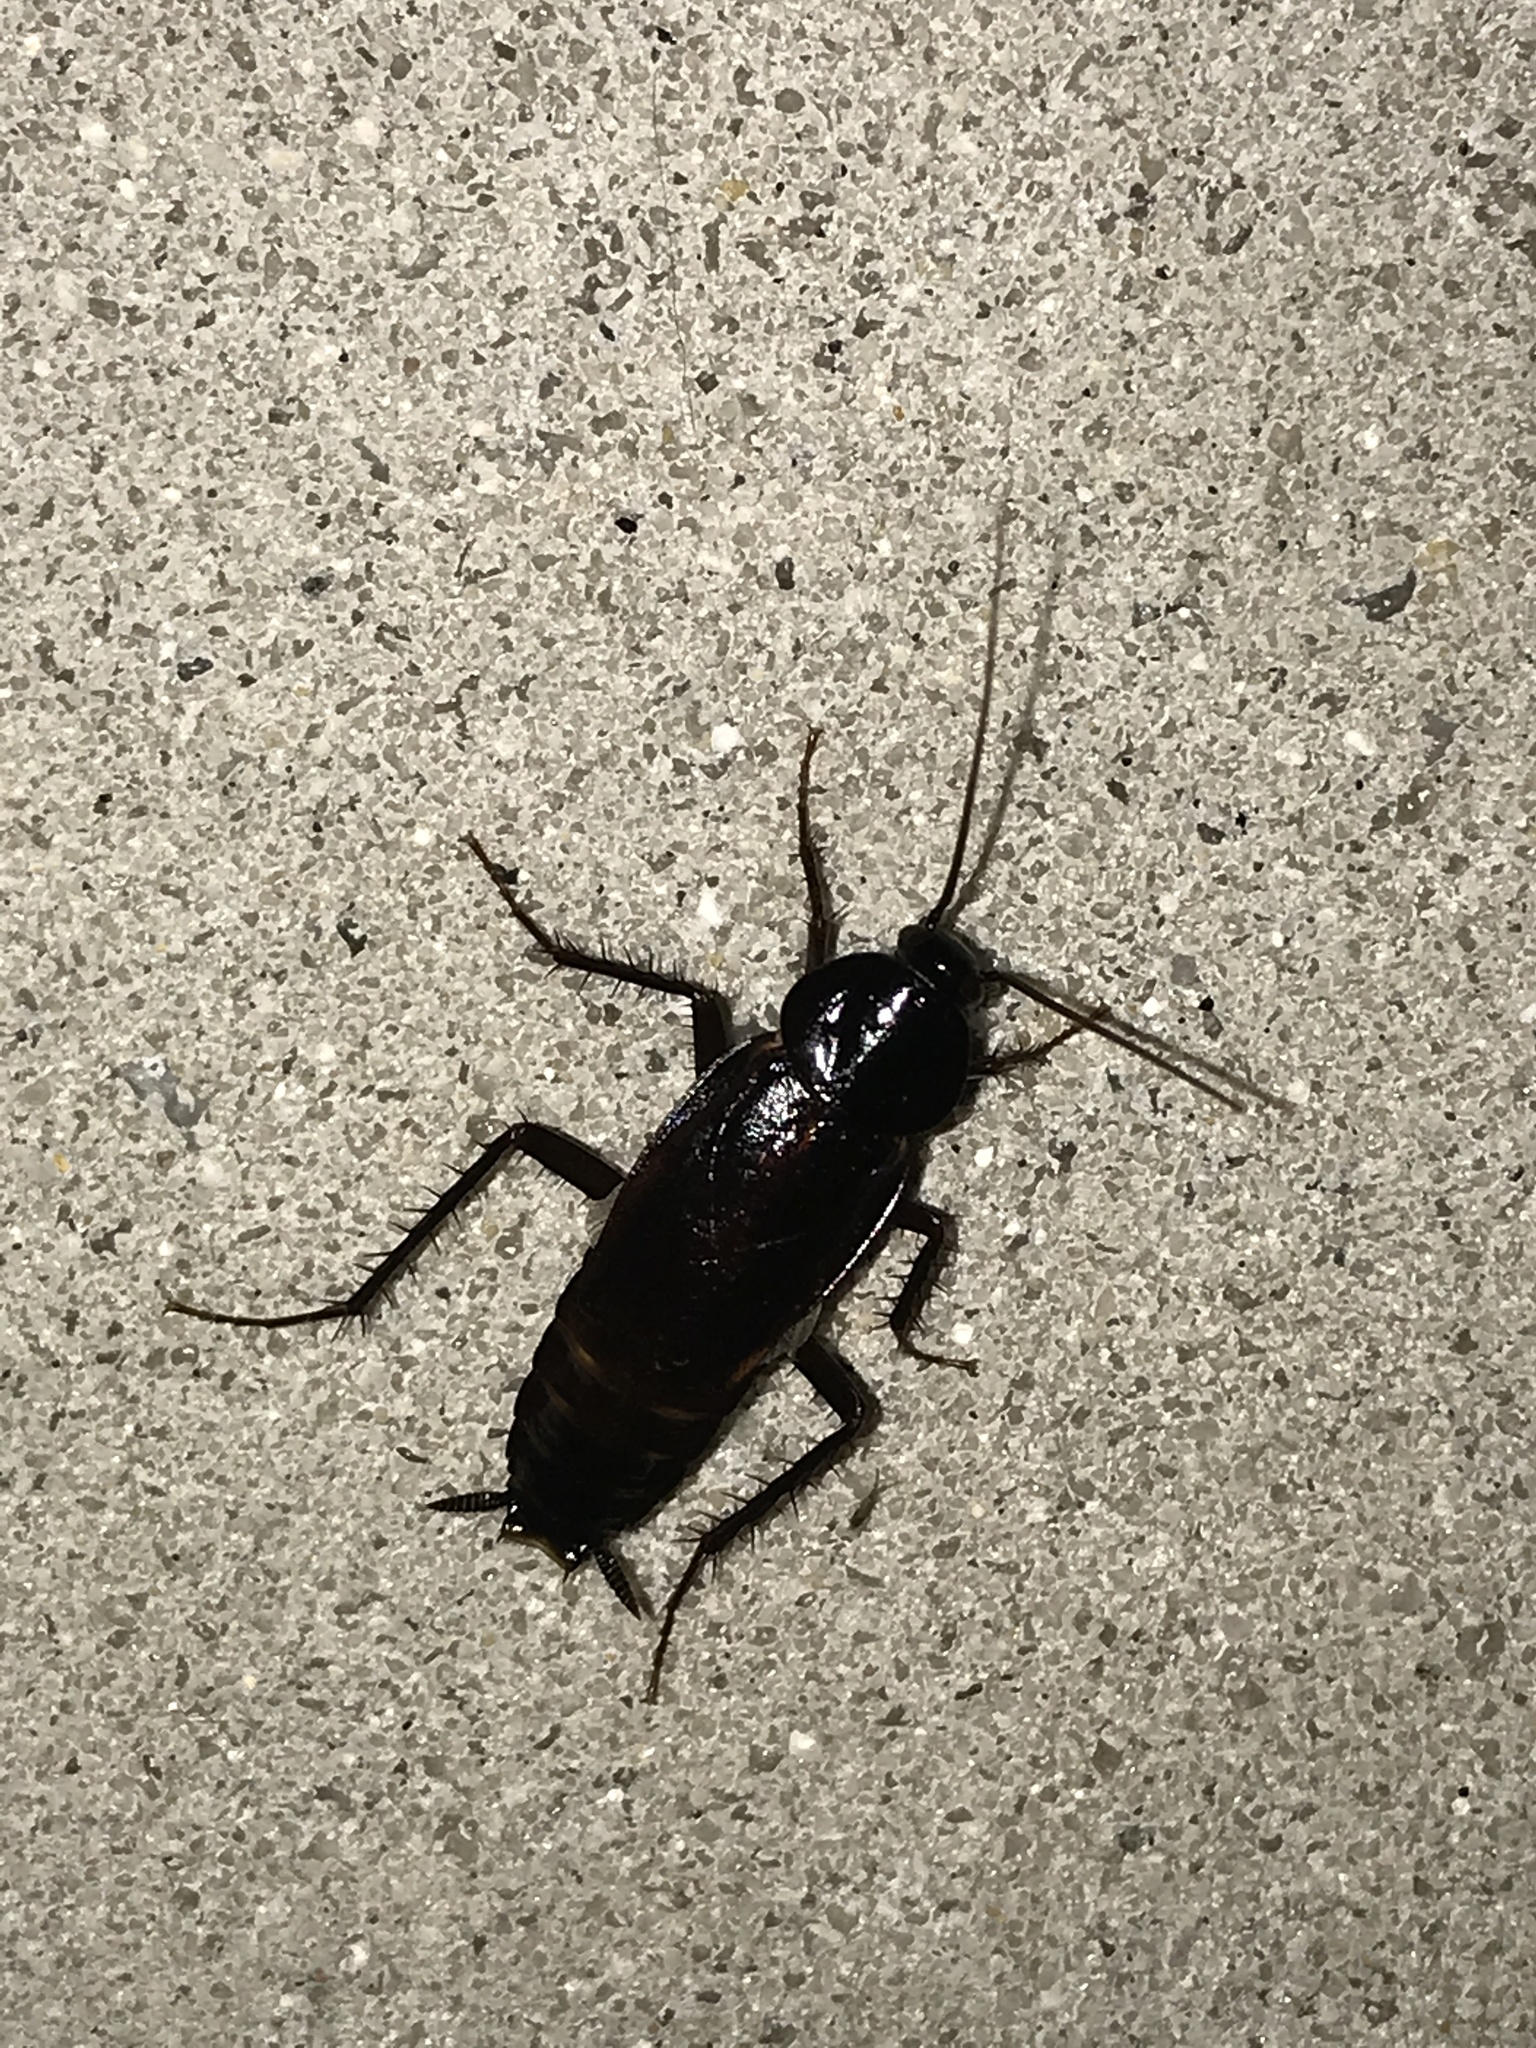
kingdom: Animalia
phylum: Arthropoda
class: Insecta
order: Blattodea
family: Blattidae
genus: Blatta
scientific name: Blatta orientalis
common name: Oriental cockroach
